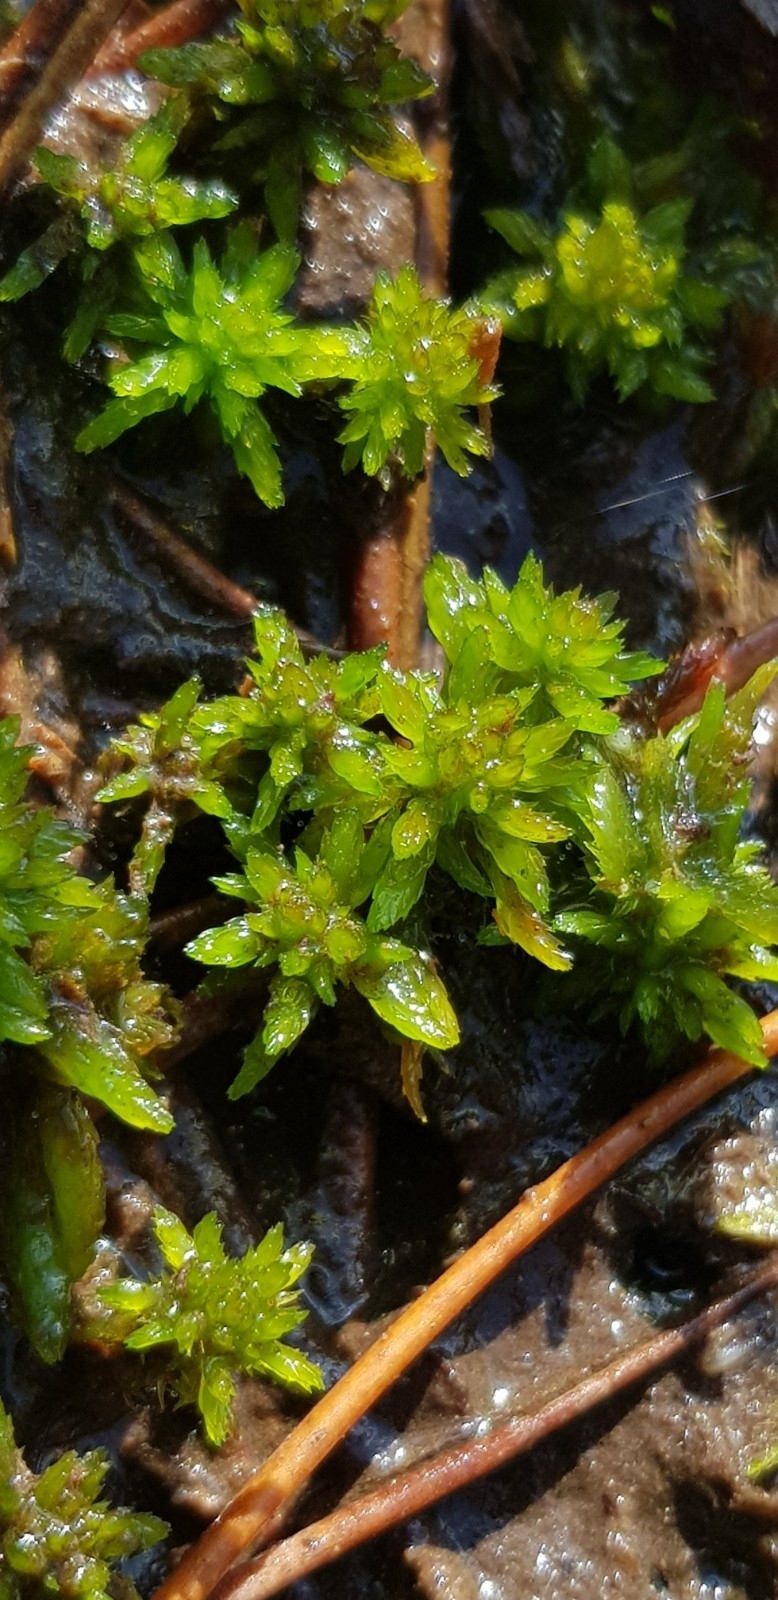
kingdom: Plantae
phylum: Bryophyta
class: Sphagnopsida
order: Sphagnales
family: Sphagnaceae
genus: Sphagnum
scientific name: Sphagnum denticulatum
